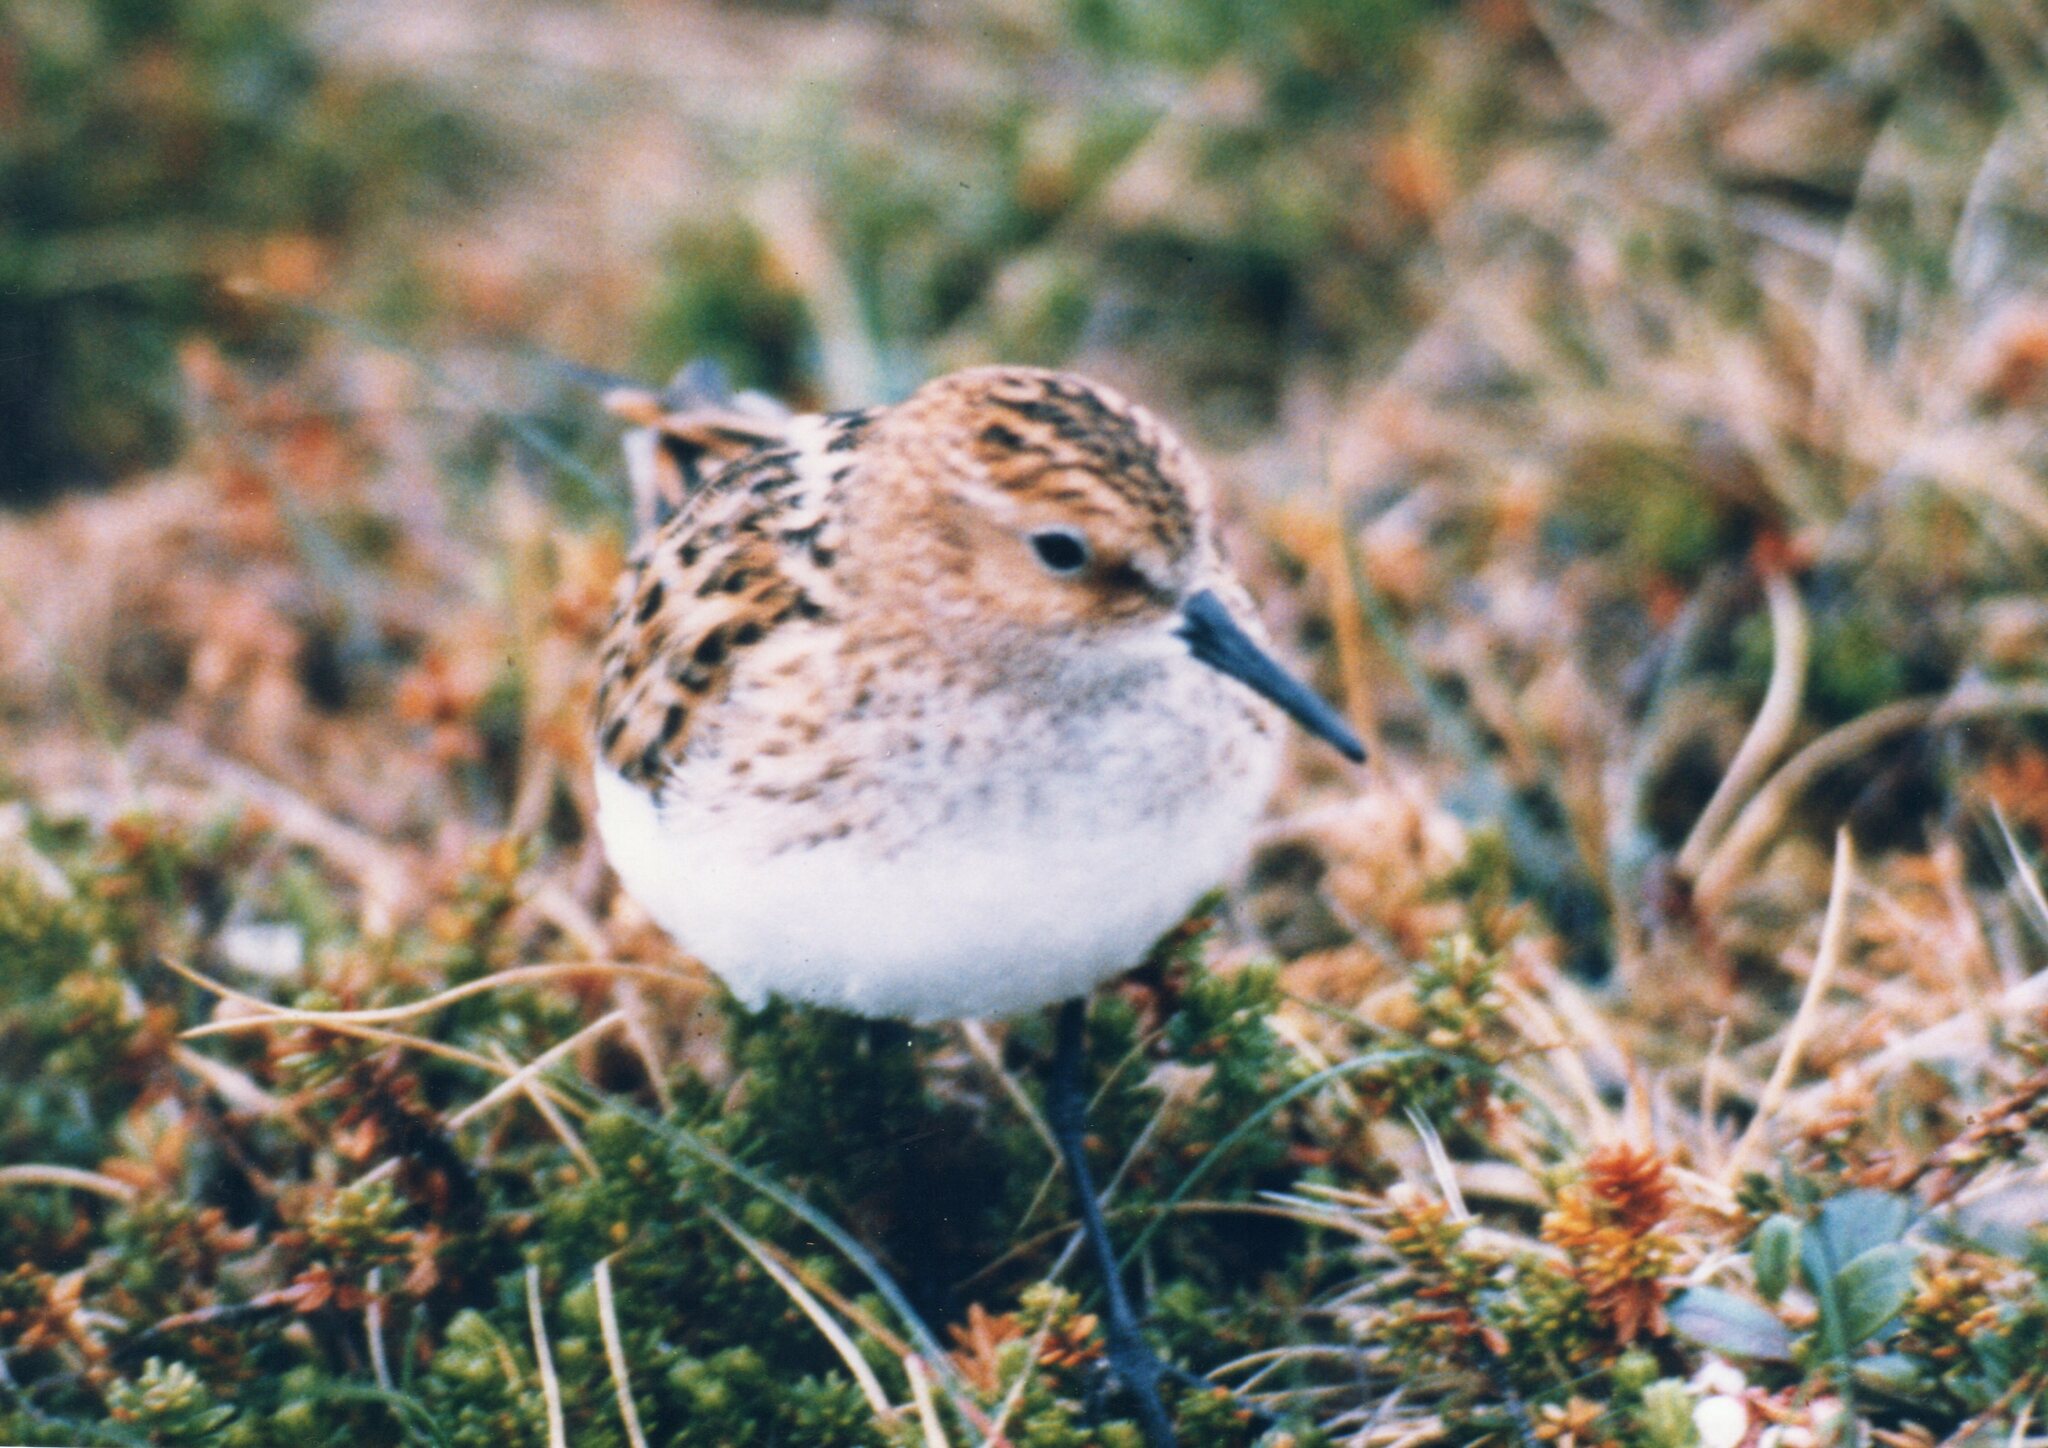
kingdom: Animalia
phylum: Chordata
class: Aves
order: Charadriiformes
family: Scolopacidae
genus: Calidris
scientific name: Calidris minuta
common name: Little stint
